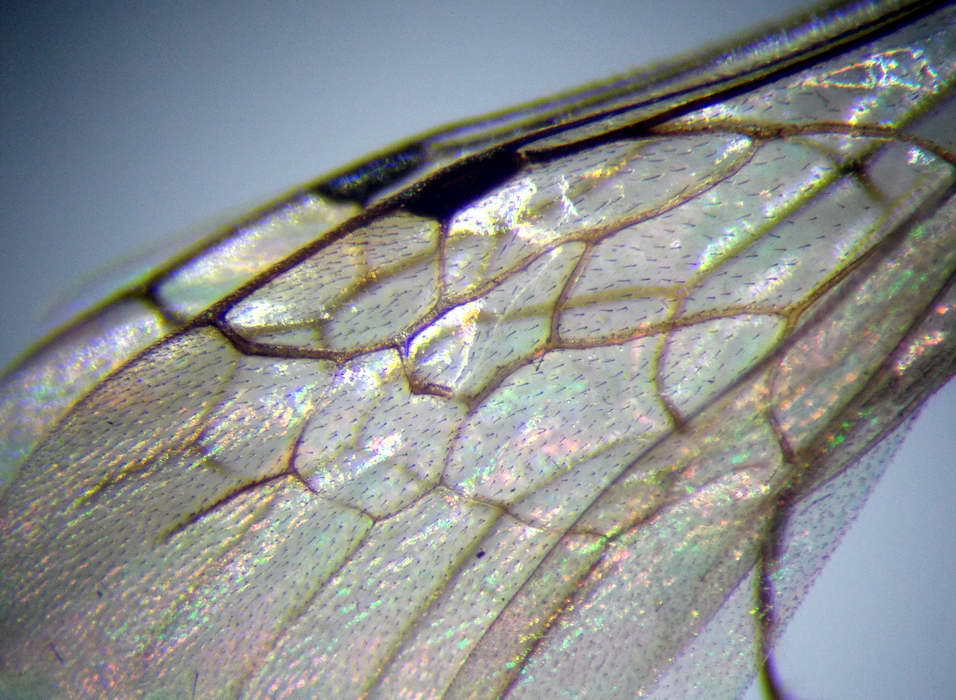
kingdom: Animalia
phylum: Arthropoda
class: Insecta
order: Hymenoptera
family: Mutillidae
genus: Smicromyrme
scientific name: Smicromyrme rufipes
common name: Small velvet ant
